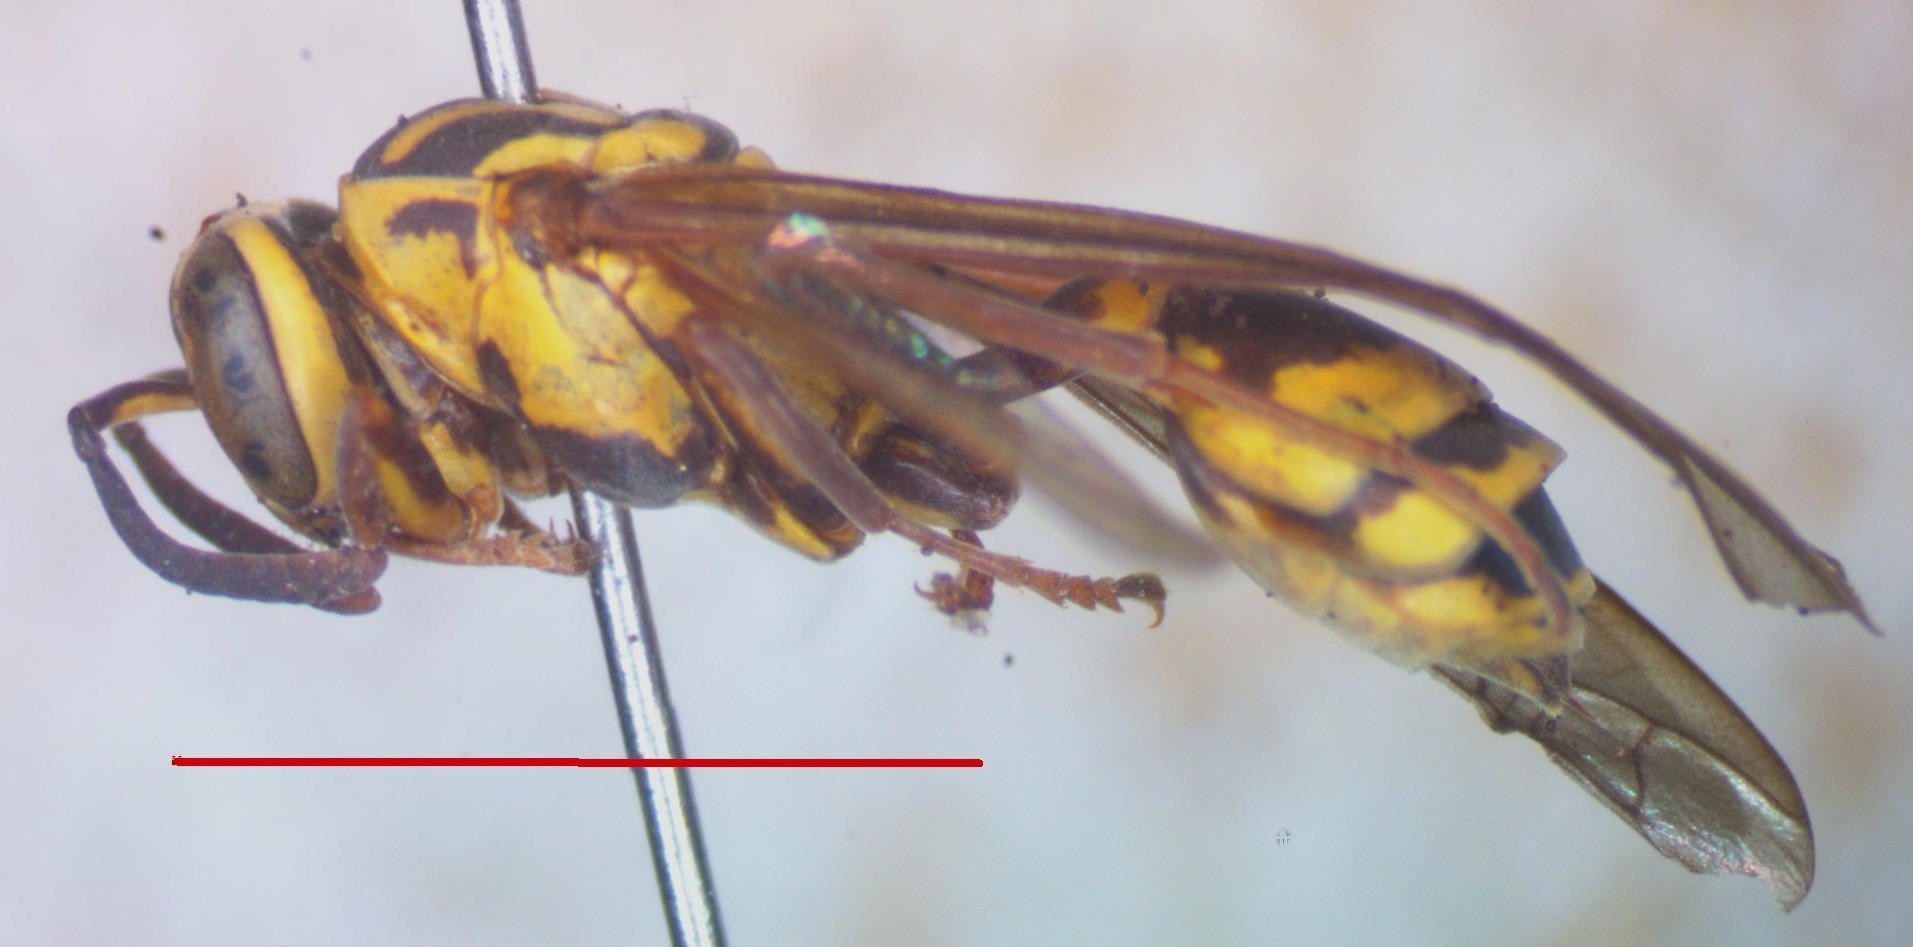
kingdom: Animalia
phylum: Arthropoda
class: Insecta
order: Hymenoptera
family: Eumenidae
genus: Polybia
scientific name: Polybia fastidiosuscula
